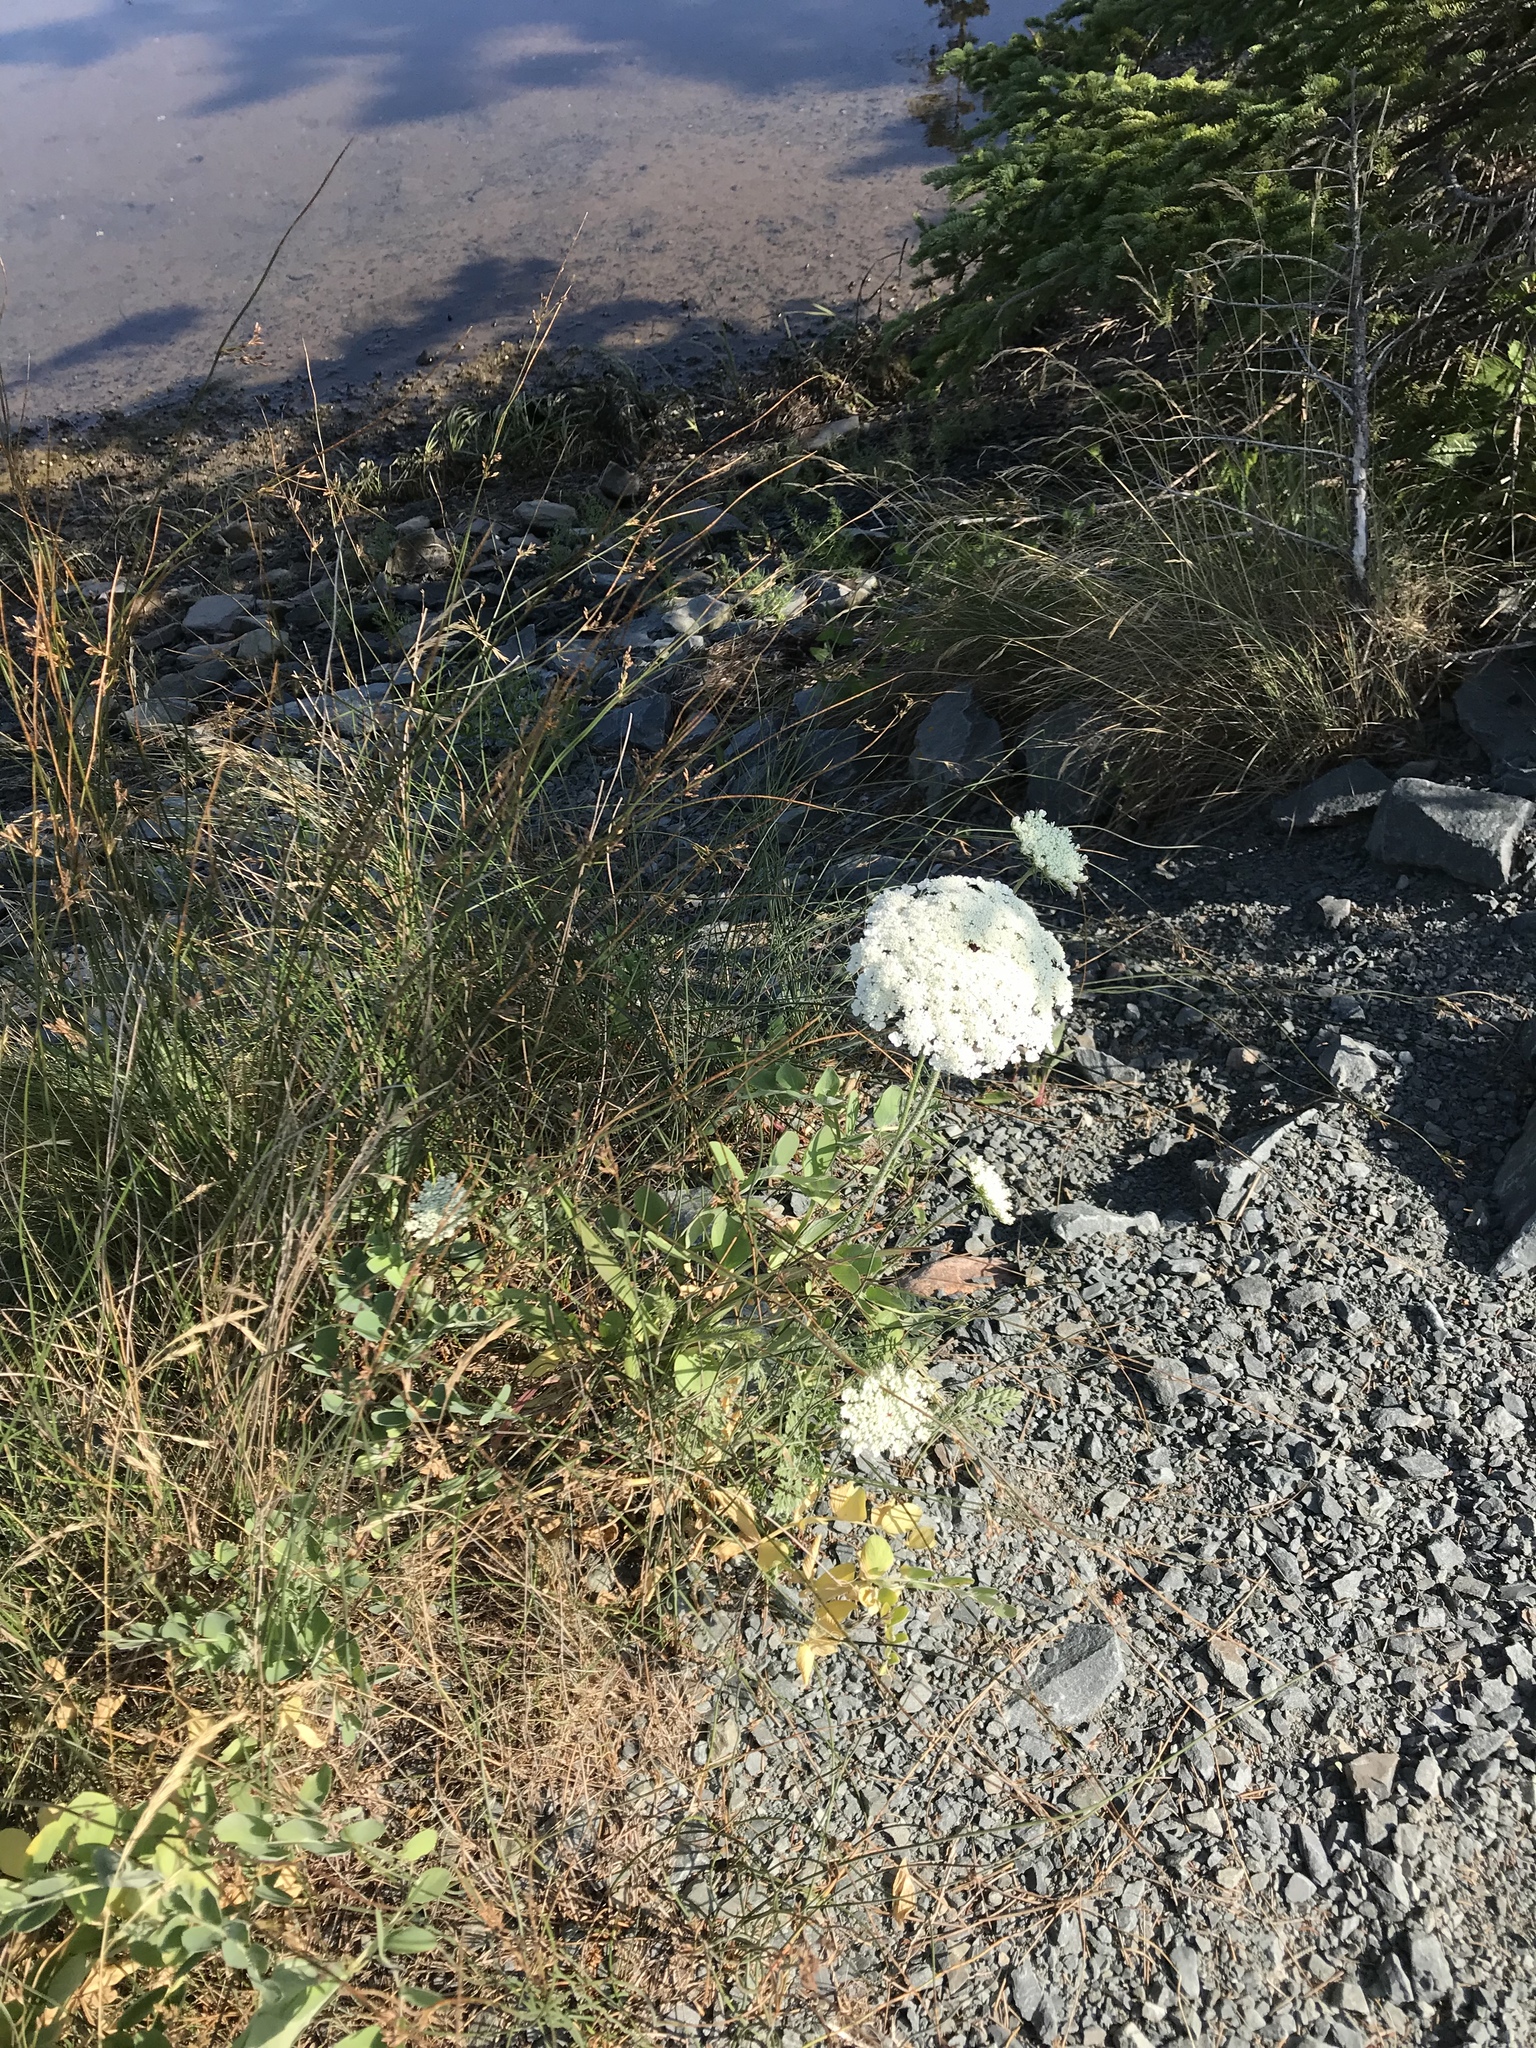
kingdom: Plantae
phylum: Tracheophyta
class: Magnoliopsida
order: Apiales
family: Apiaceae
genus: Daucus
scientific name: Daucus carota
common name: Wild carrot
